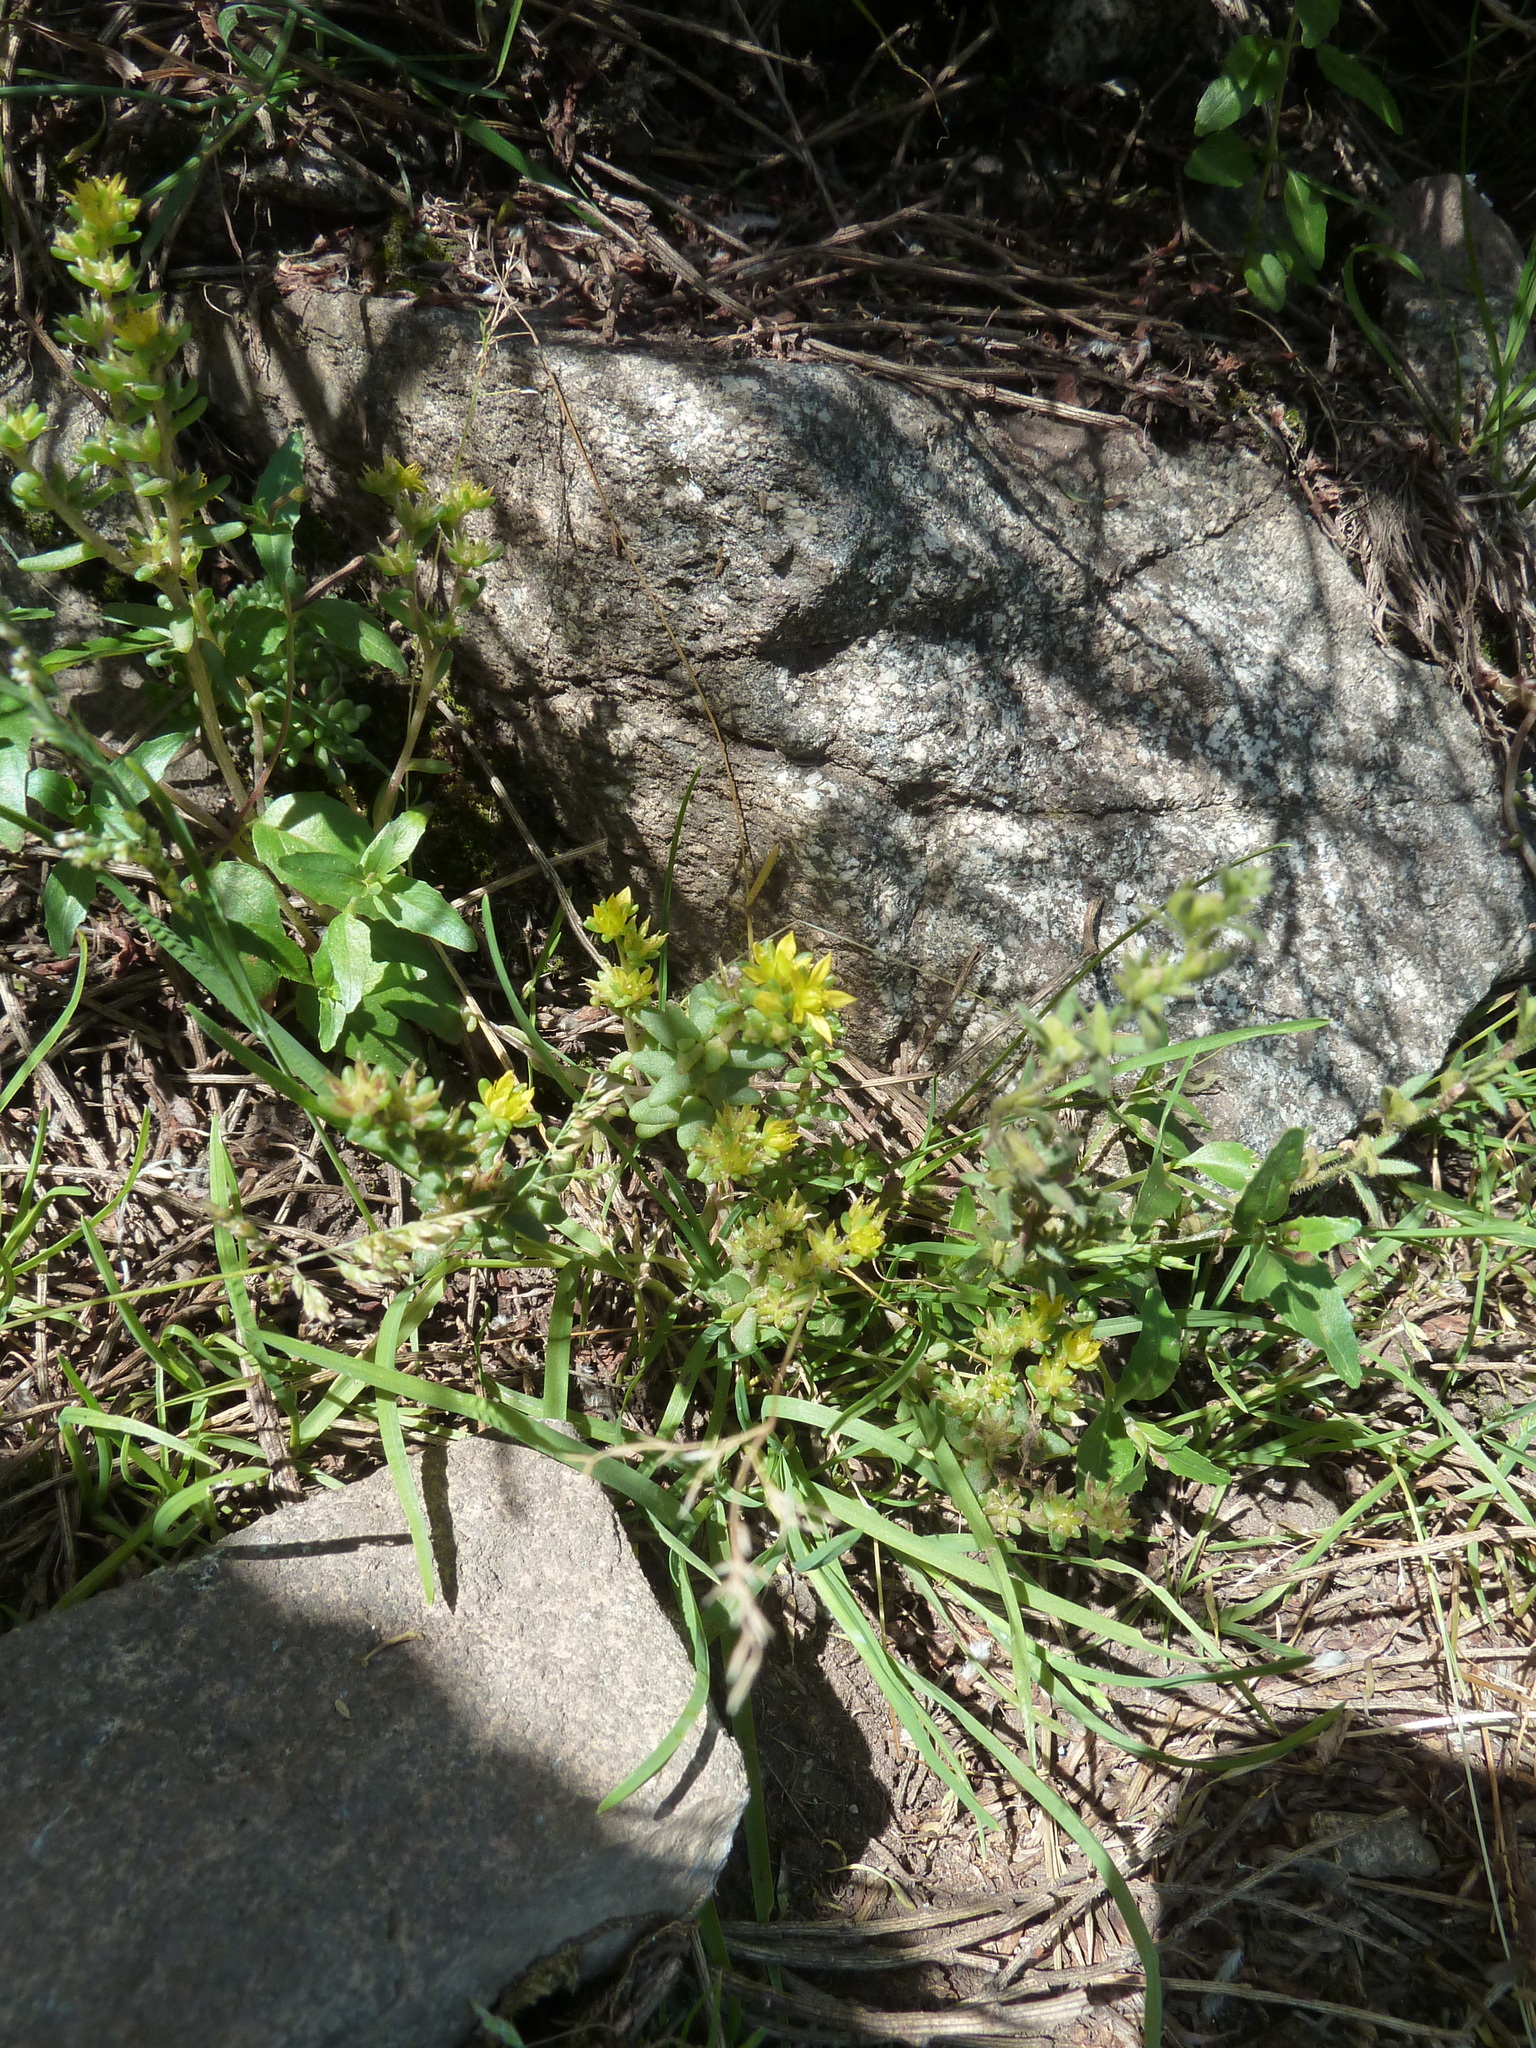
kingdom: Plantae
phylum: Tracheophyta
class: Magnoliopsida
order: Saxifragales
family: Crassulaceae
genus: Sedum
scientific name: Sedum annuum
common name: Annual stonecrop
